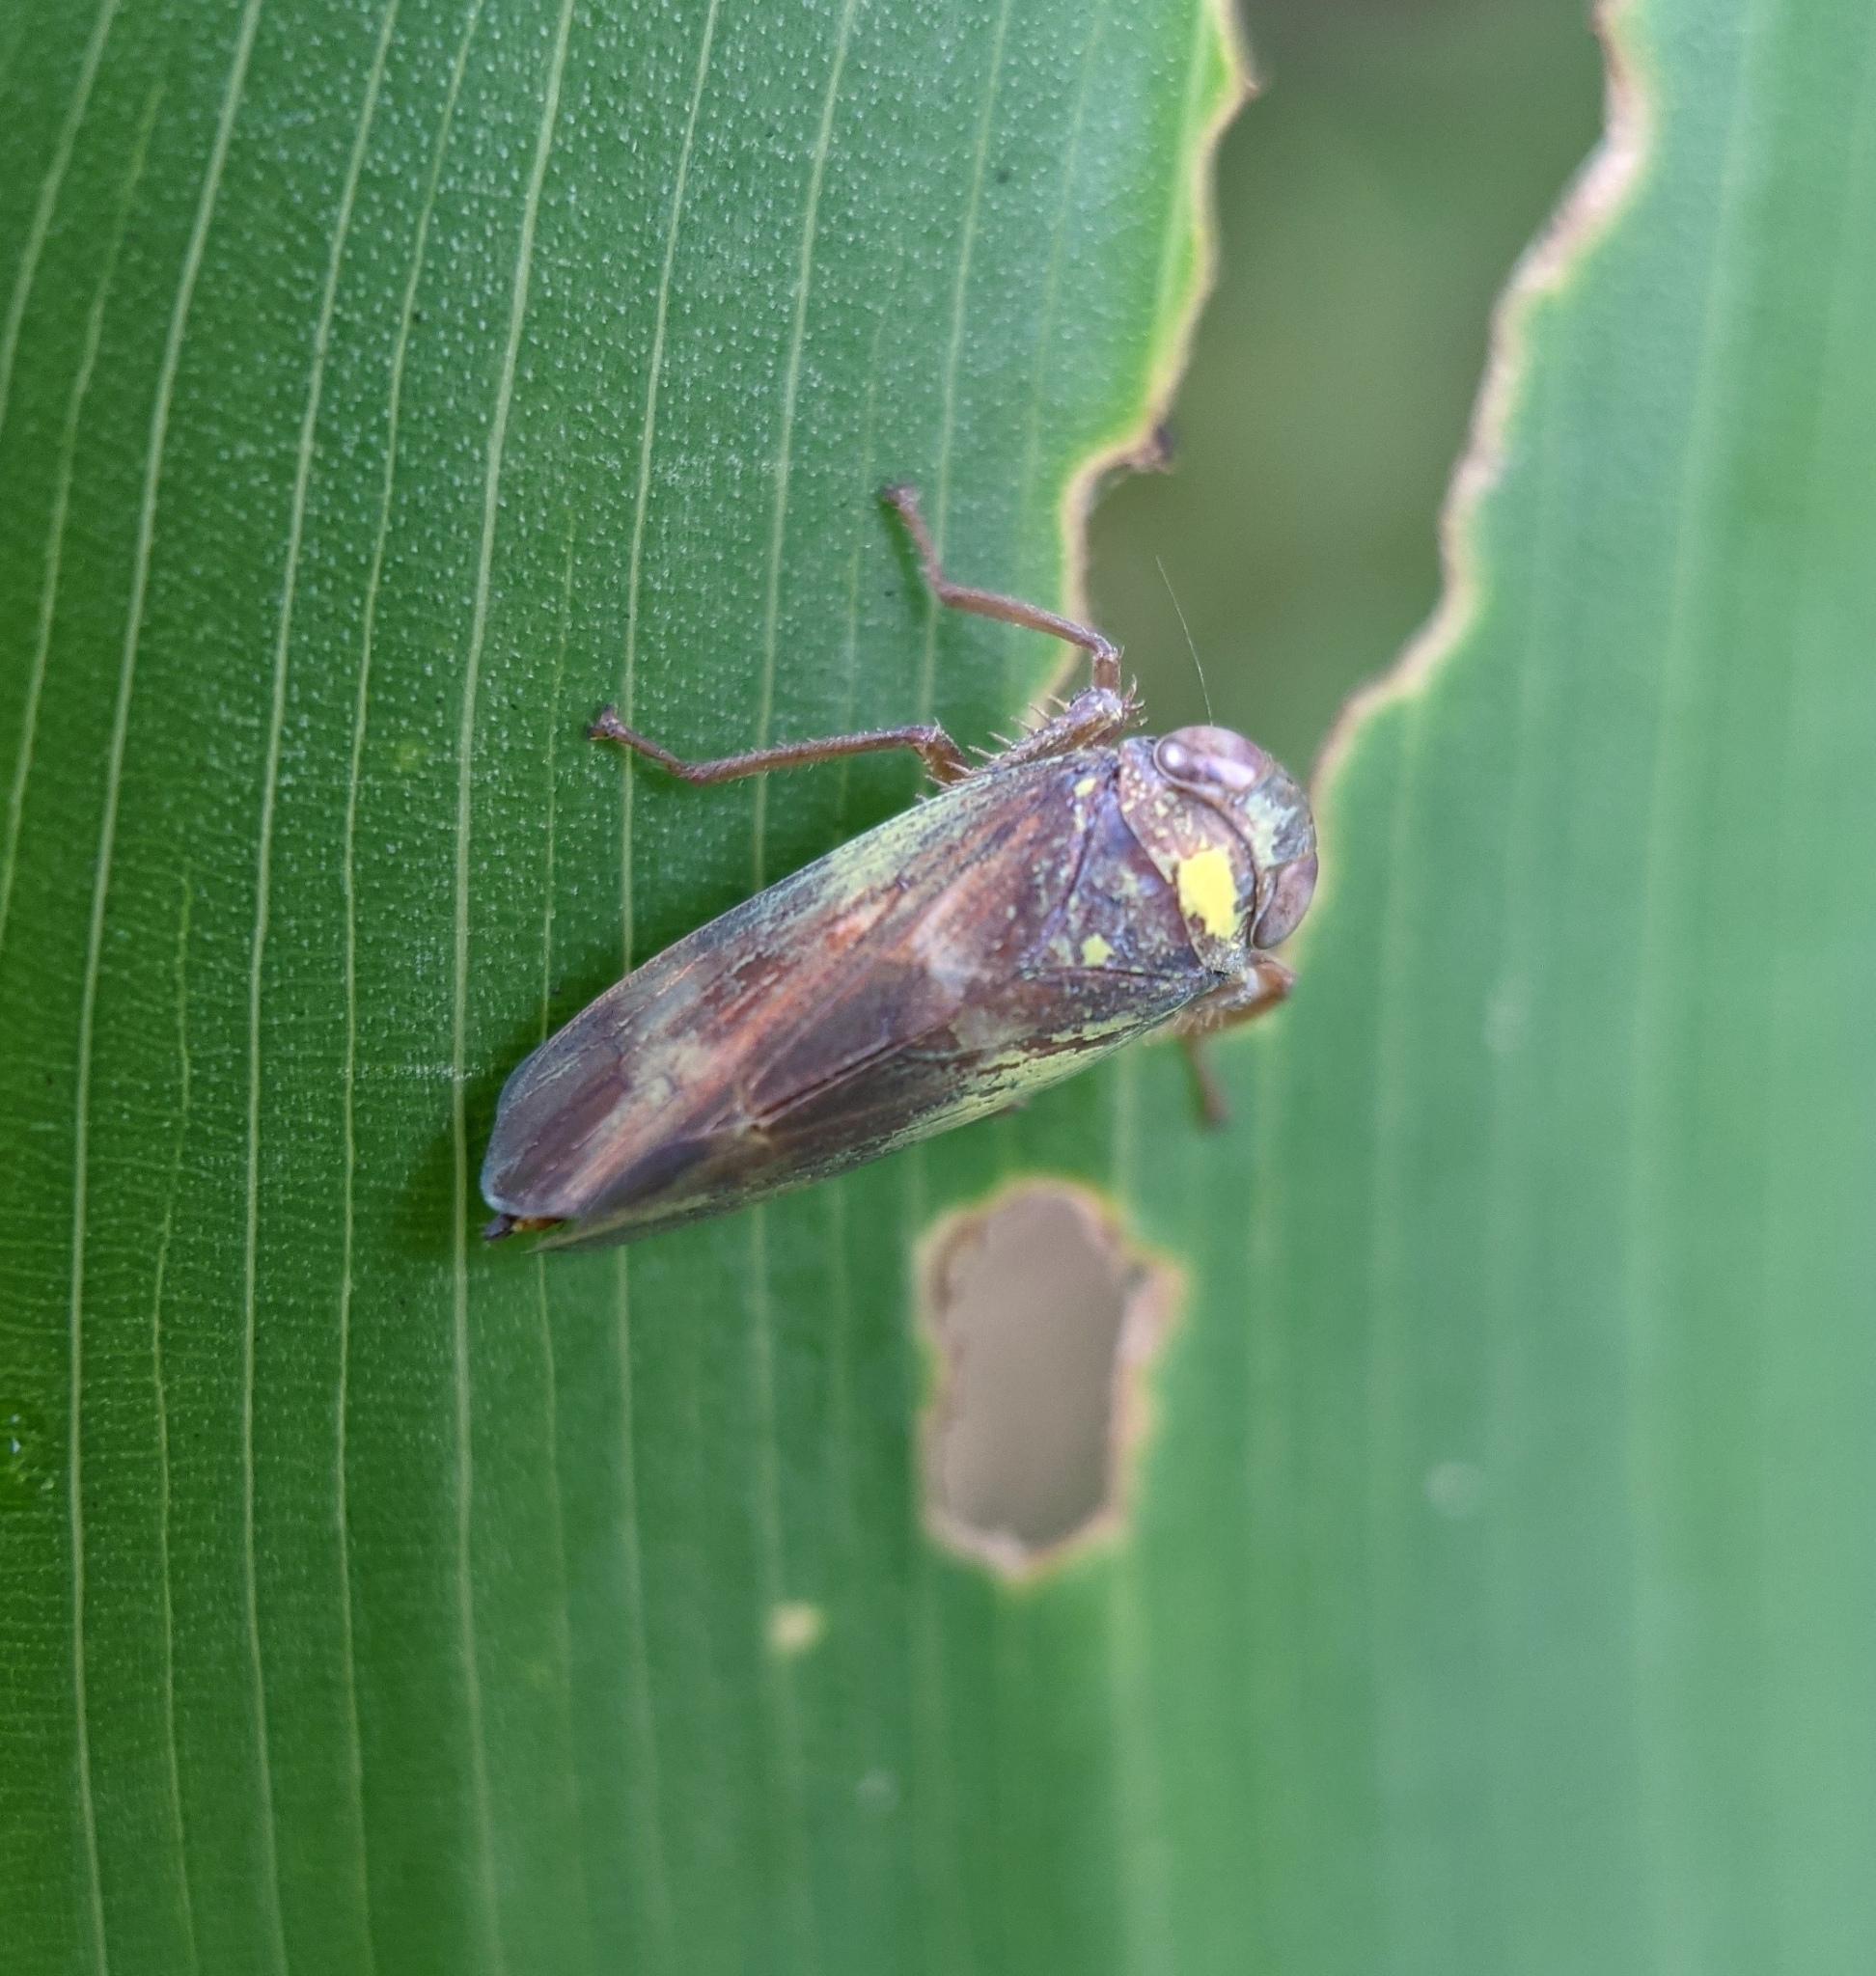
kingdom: Animalia
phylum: Arthropoda
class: Insecta
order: Hemiptera
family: Cicadellidae
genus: Jikradia
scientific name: Jikradia olitoria
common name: Coppery leafhopper
